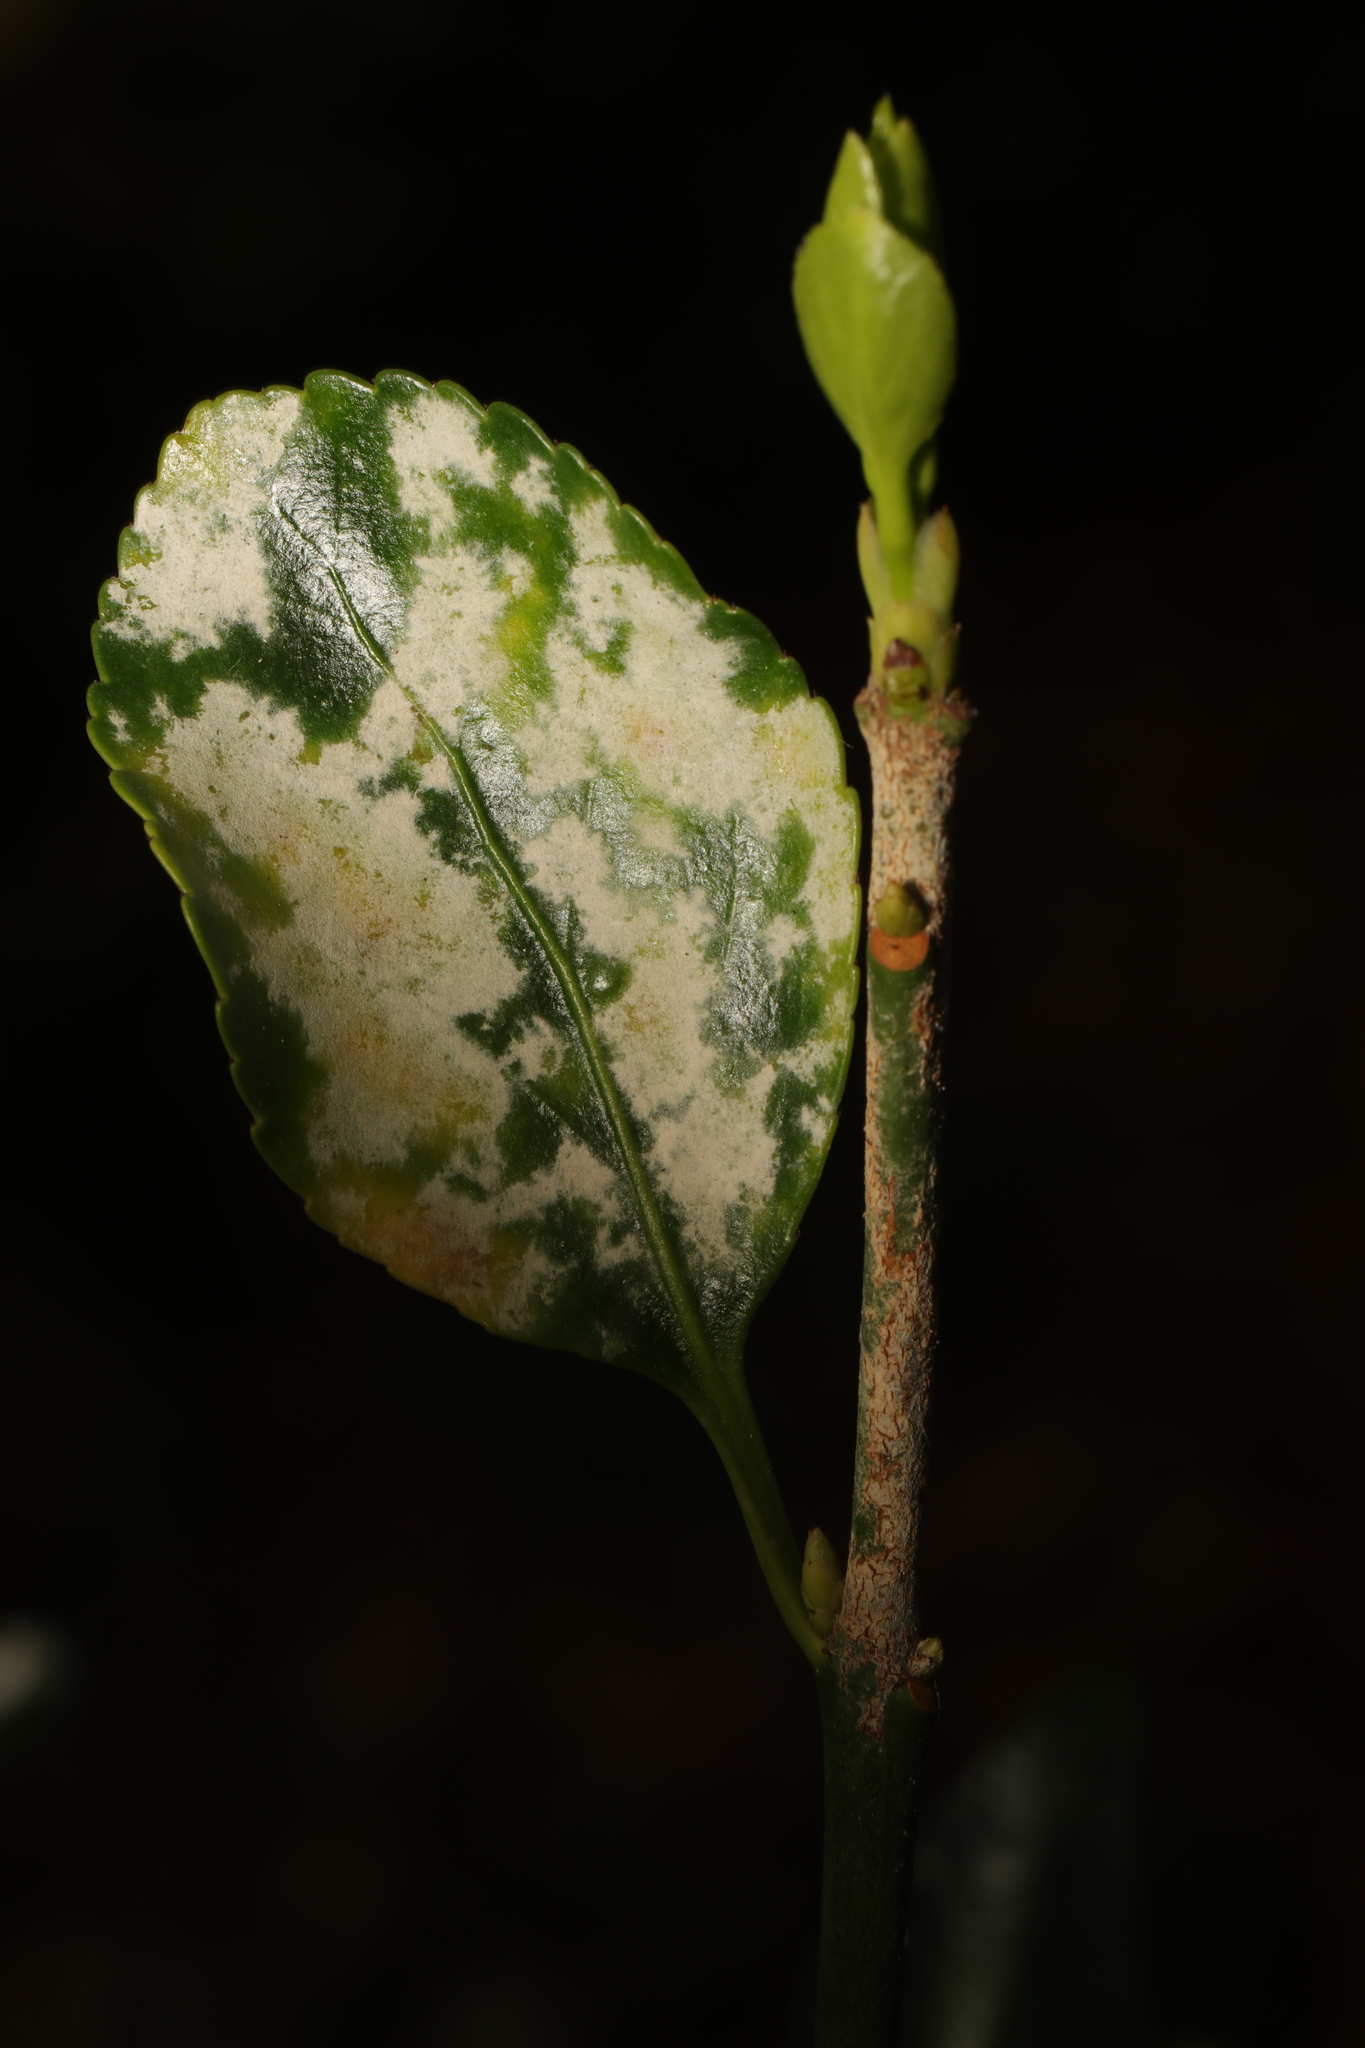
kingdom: Fungi
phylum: Ascomycota
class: Leotiomycetes
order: Helotiales
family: Erysiphaceae
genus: Erysiphe
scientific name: Erysiphe euonymicola
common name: Spindletree mildew
